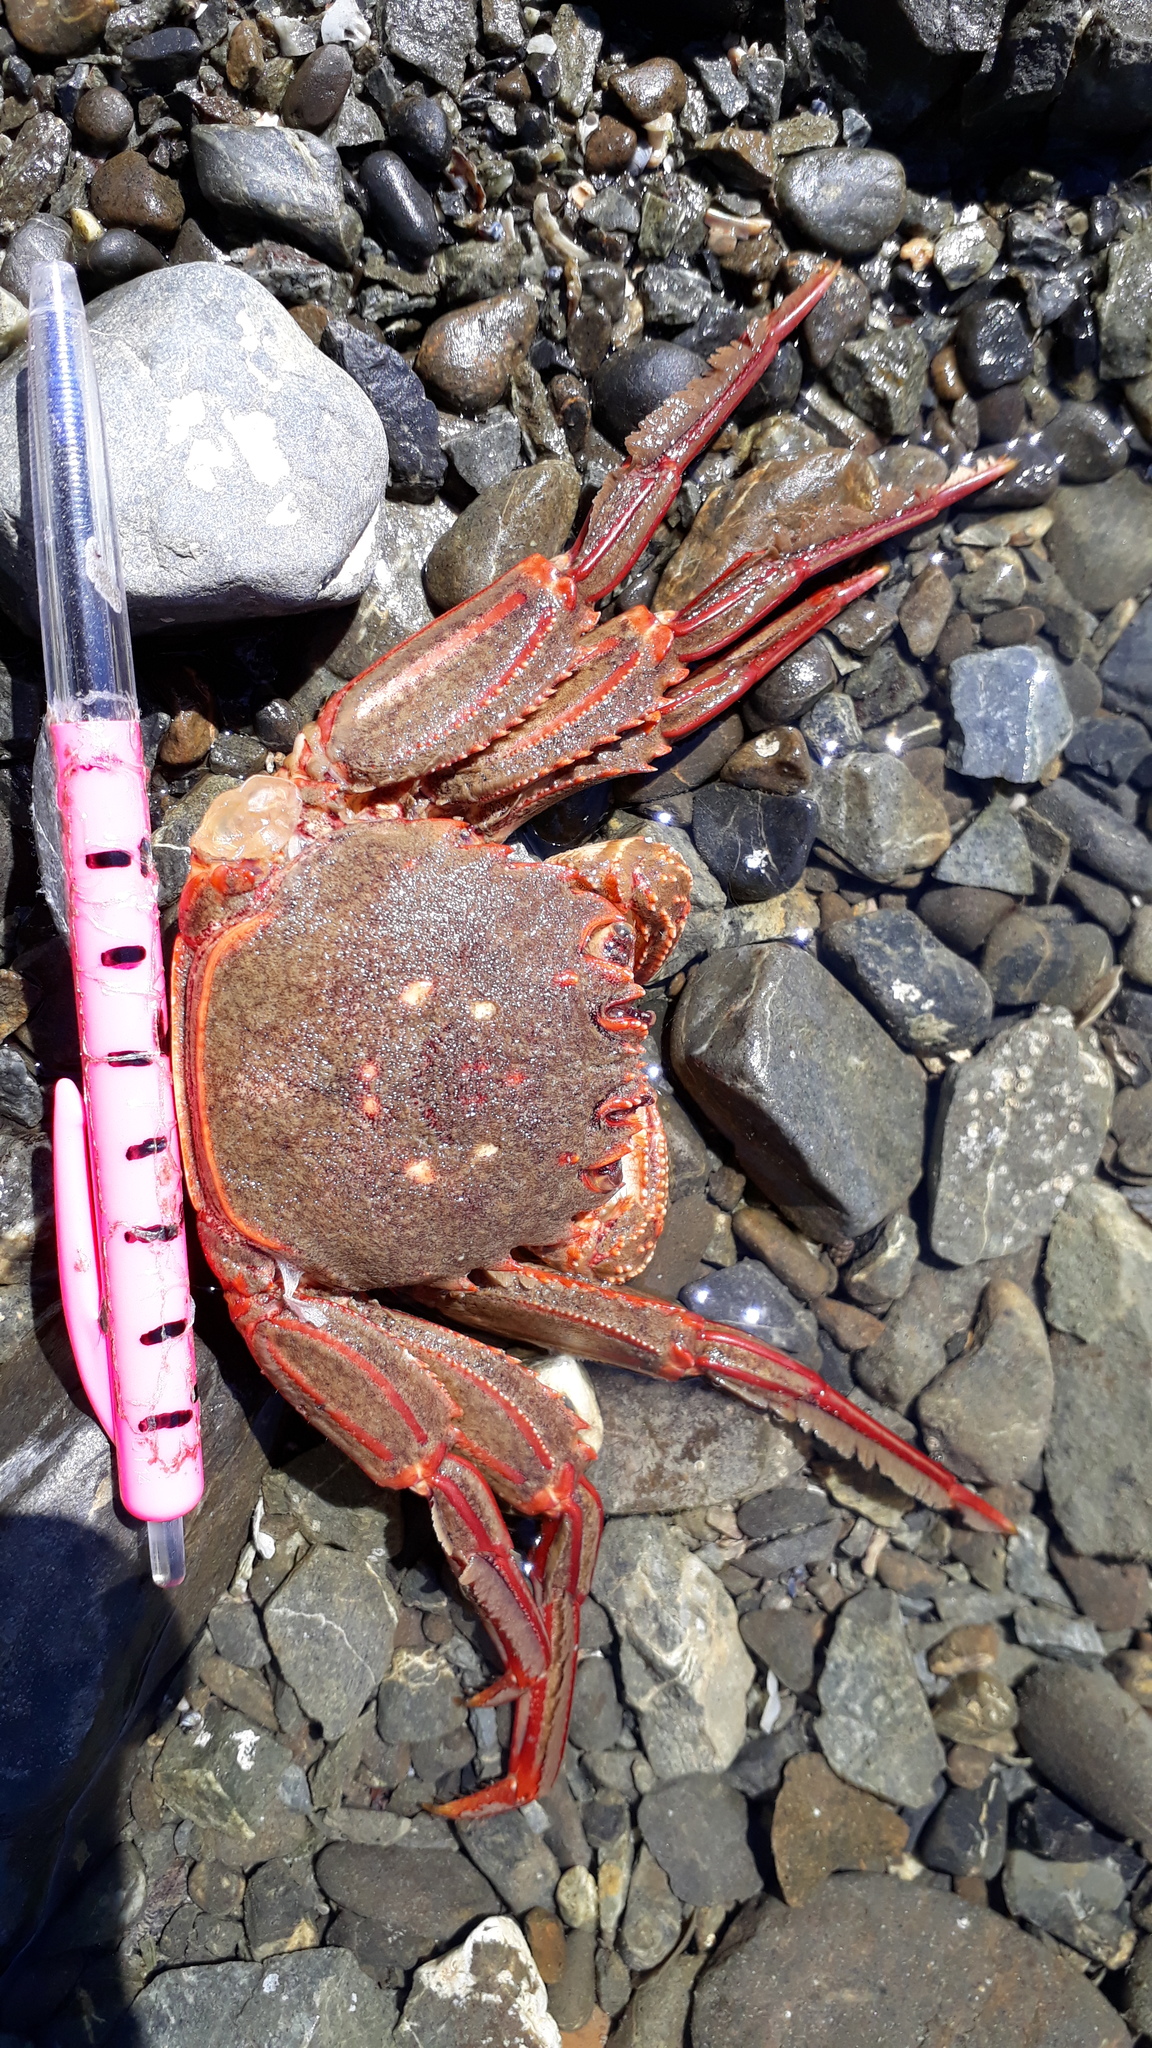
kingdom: Animalia
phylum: Arthropoda
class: Malacostraca
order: Decapoda
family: Plagusiidae
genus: Guinusia
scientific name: Guinusia chabrus
